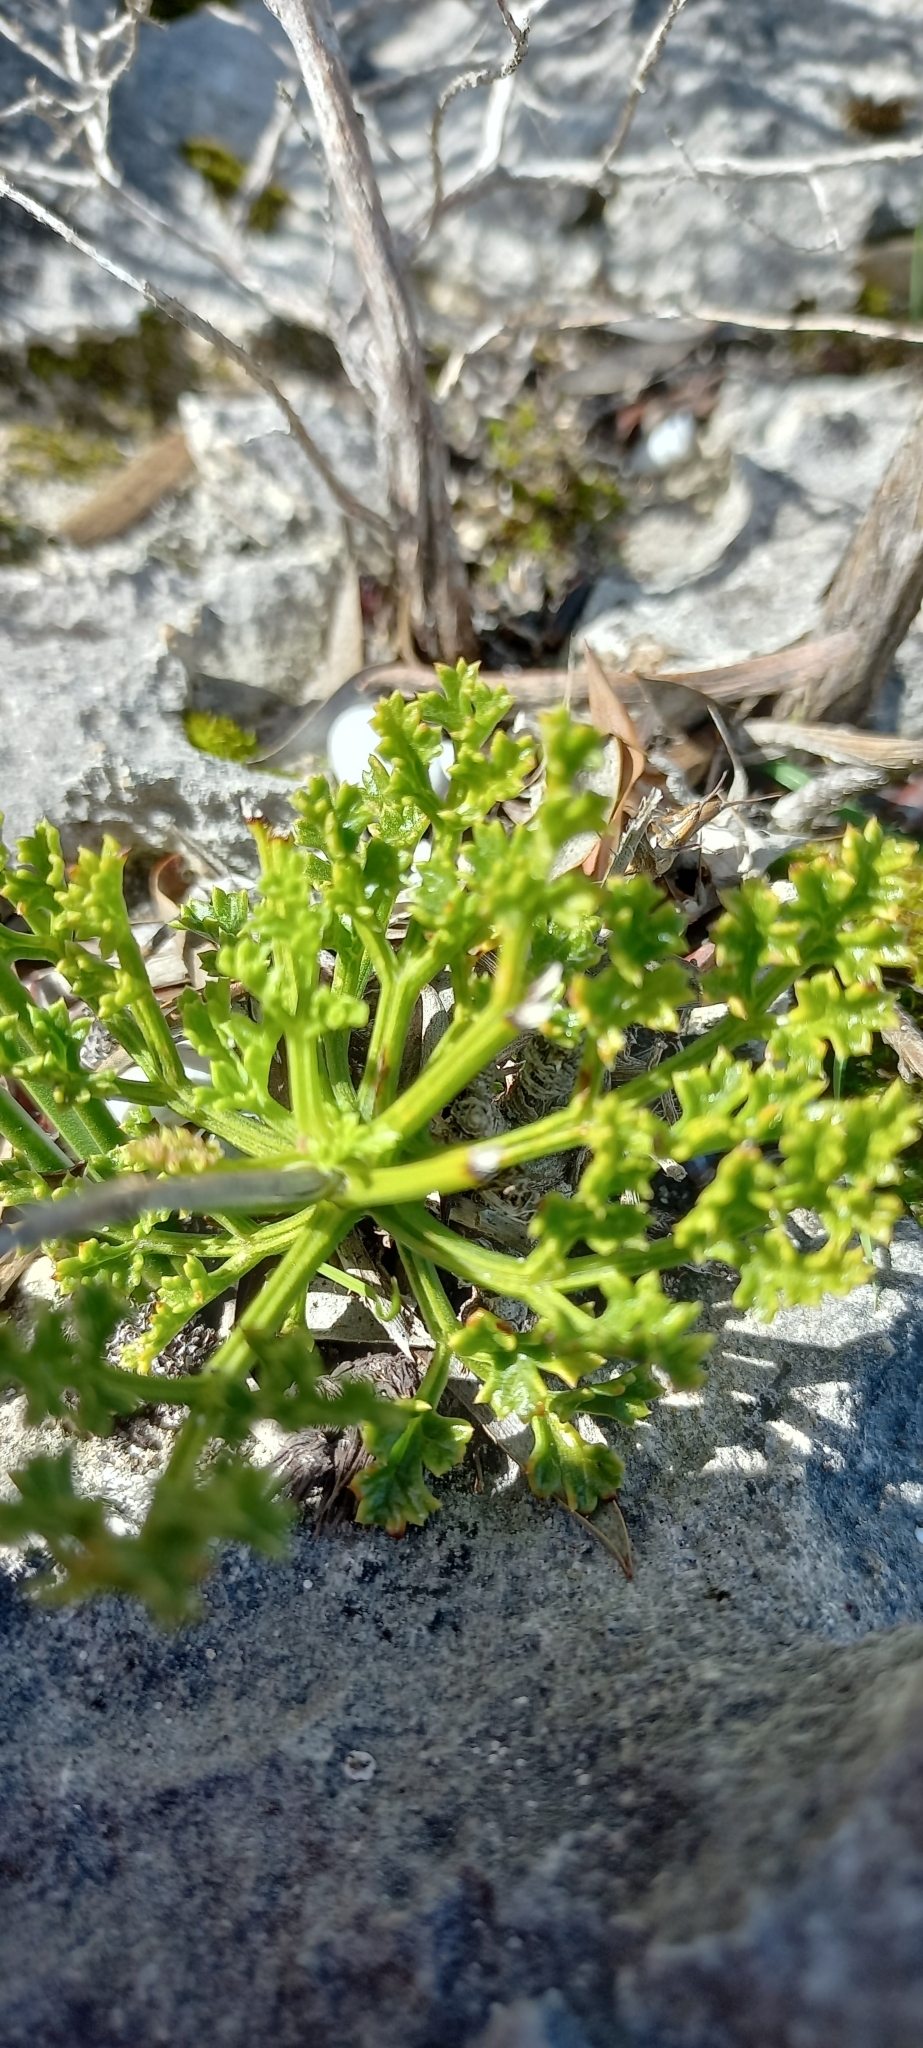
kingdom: Plantae
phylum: Tracheophyta
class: Magnoliopsida
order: Apiales
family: Apiaceae
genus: Dasispermum
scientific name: Dasispermum suffruticosum
